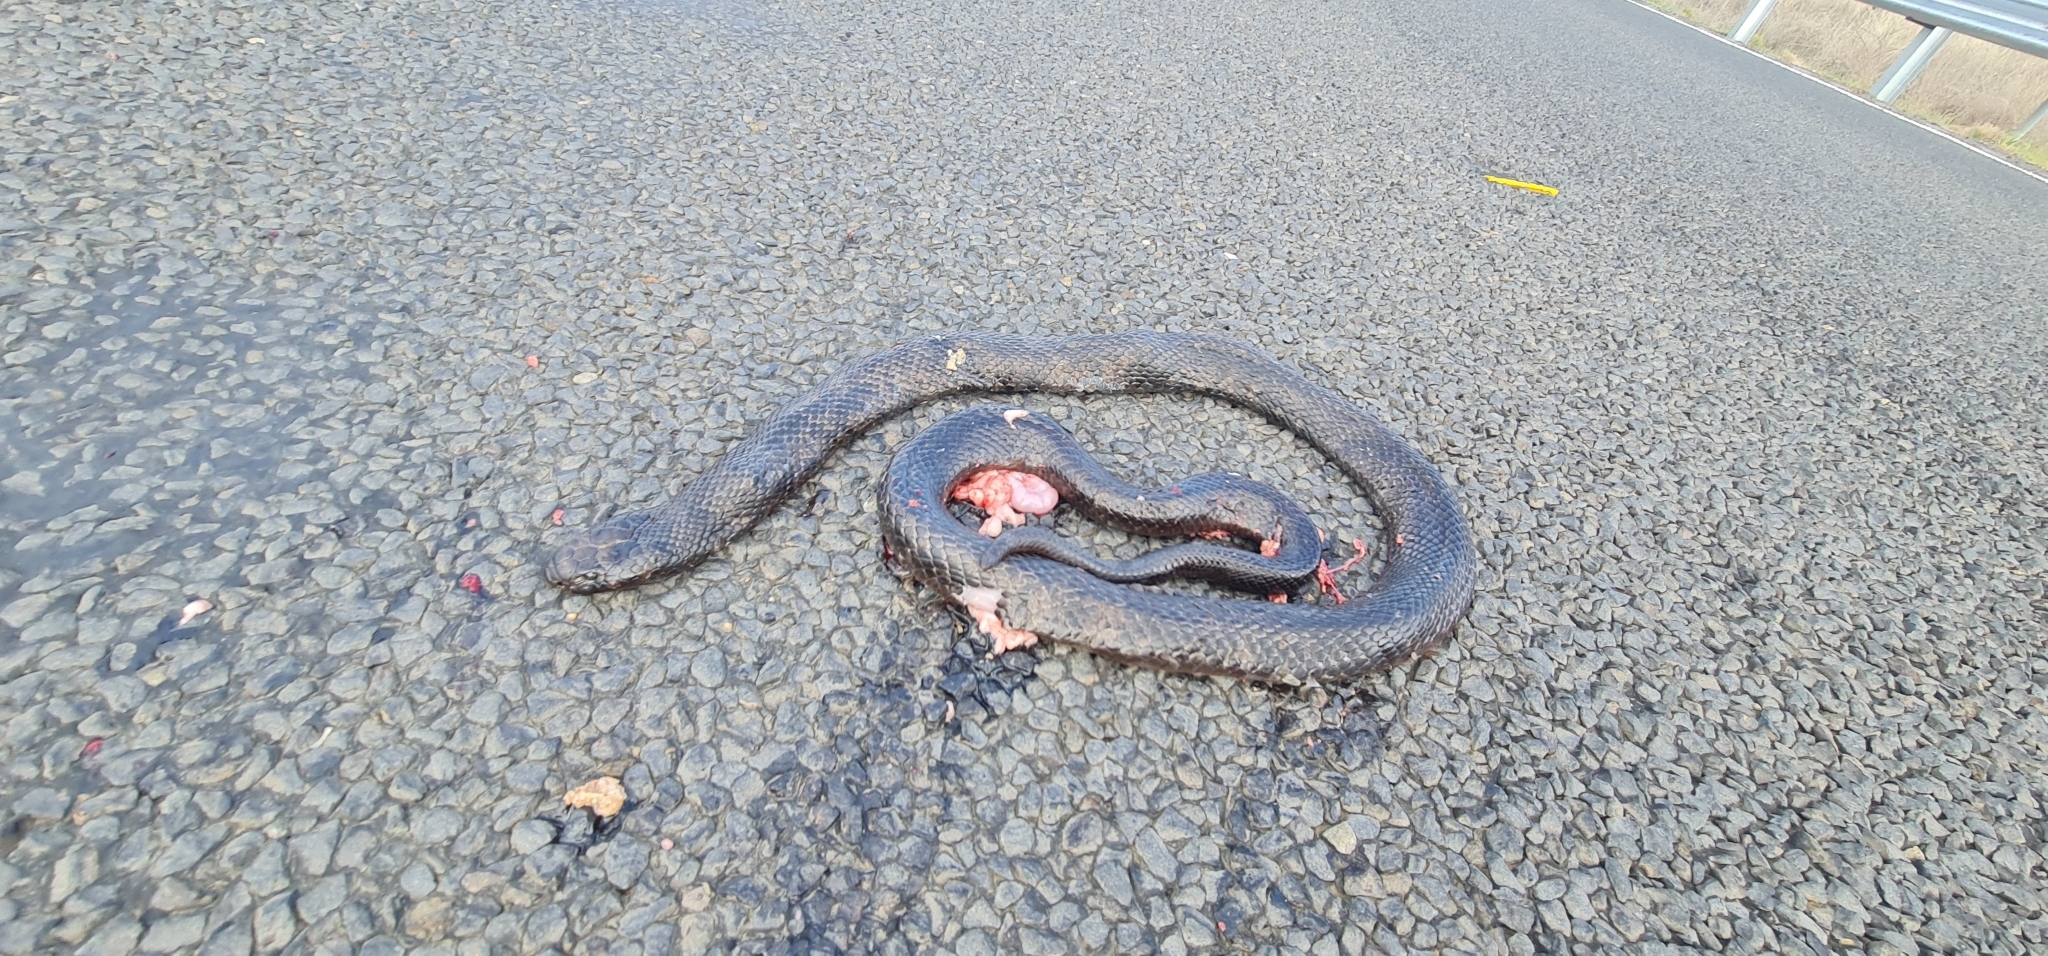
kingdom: Animalia
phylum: Chordata
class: Squamata
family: Elapidae
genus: Pseudechis
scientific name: Pseudechis guttatus
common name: Blue-bellied black snake
